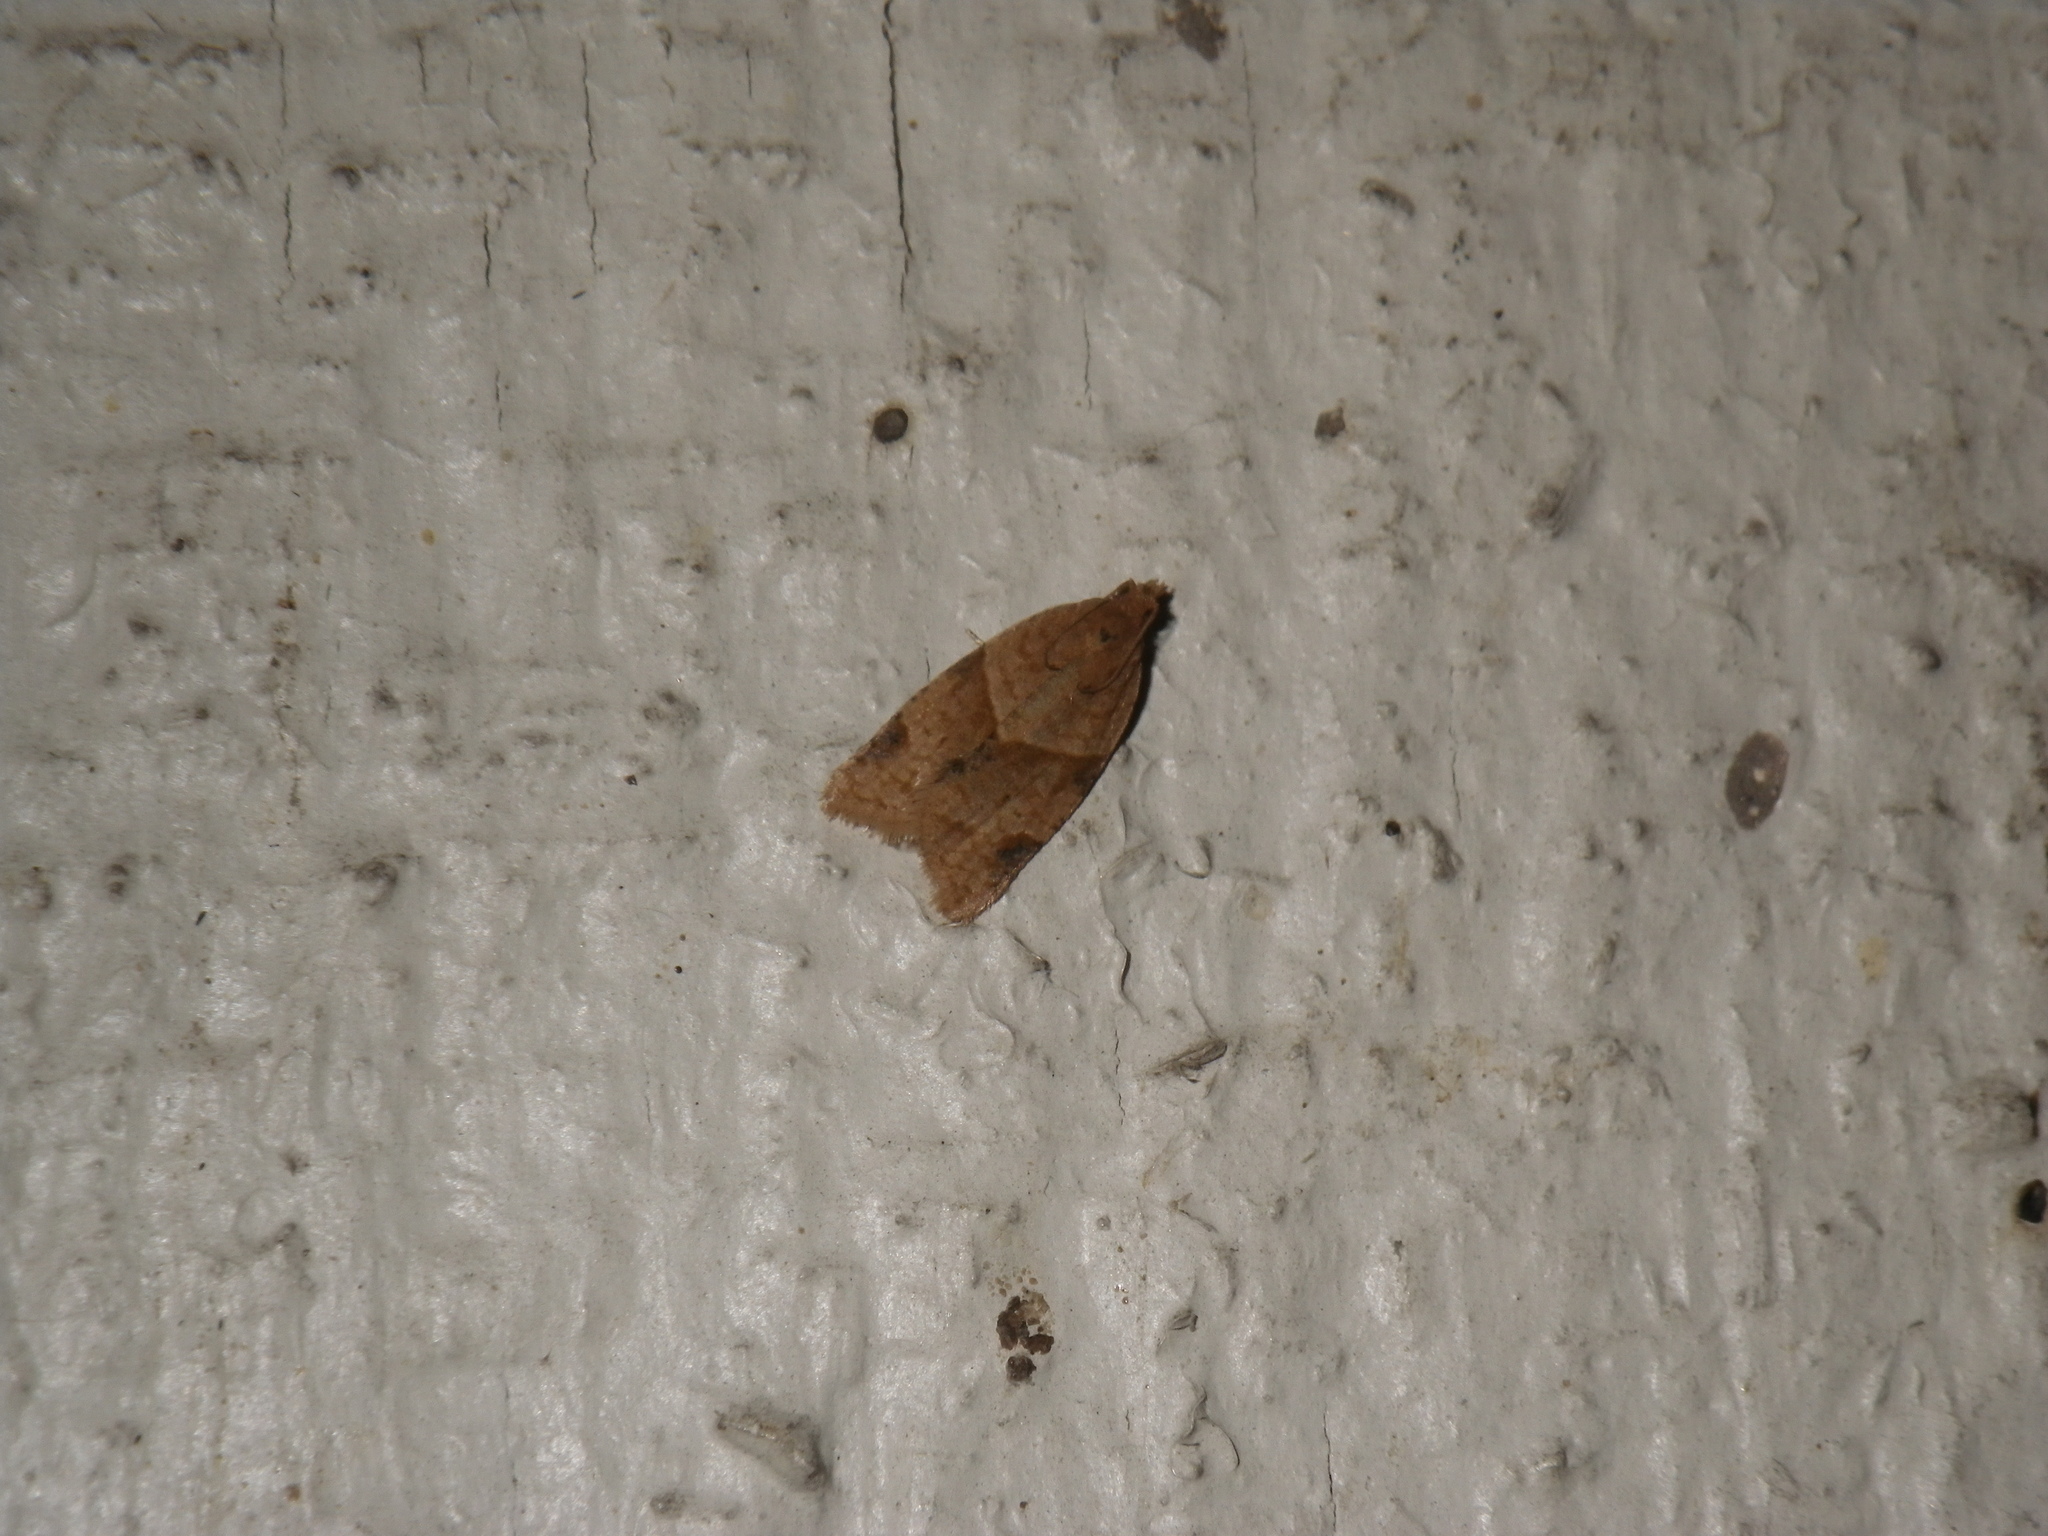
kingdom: Animalia
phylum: Arthropoda
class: Insecta
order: Lepidoptera
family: Tortricidae
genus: Clepsis
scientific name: Clepsis peritana
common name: Garden tortrix
